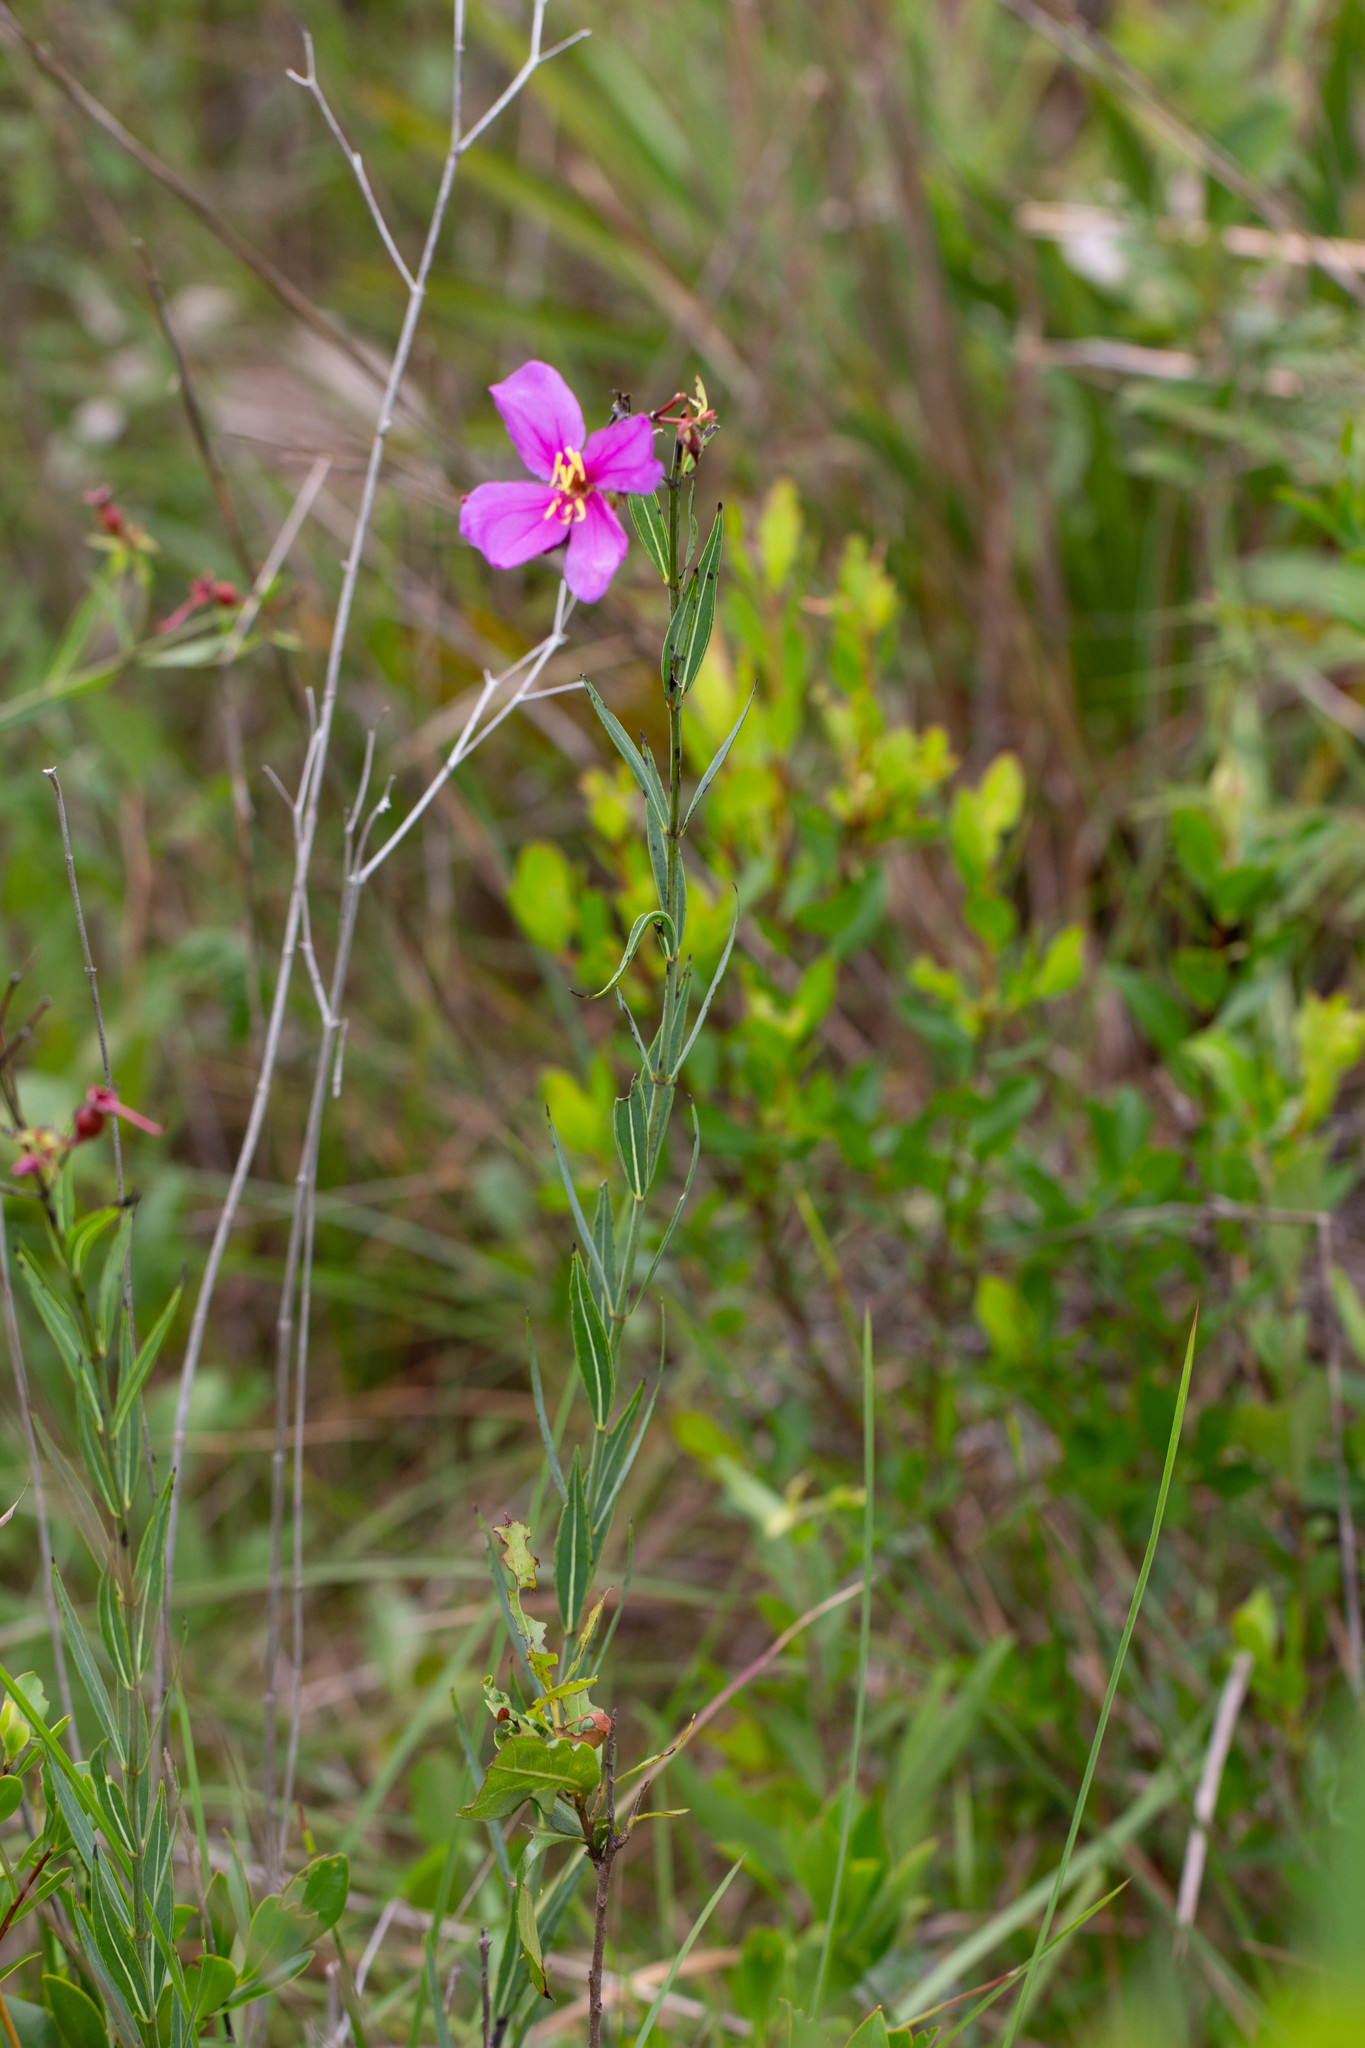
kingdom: Plantae
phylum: Tracheophyta
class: Magnoliopsida
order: Myrtales
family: Melastomataceae
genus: Rhexia
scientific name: Rhexia alifanus
